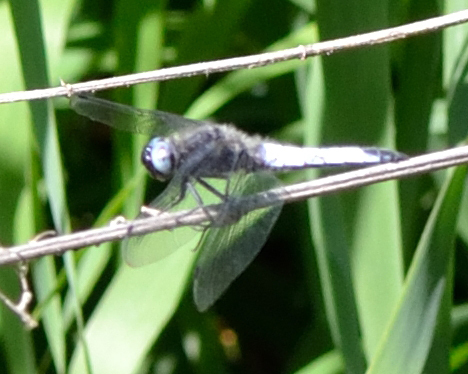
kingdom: Animalia
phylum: Arthropoda
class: Insecta
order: Odonata
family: Libellulidae
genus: Libellula
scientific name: Libellula fulva
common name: Blue chaser
